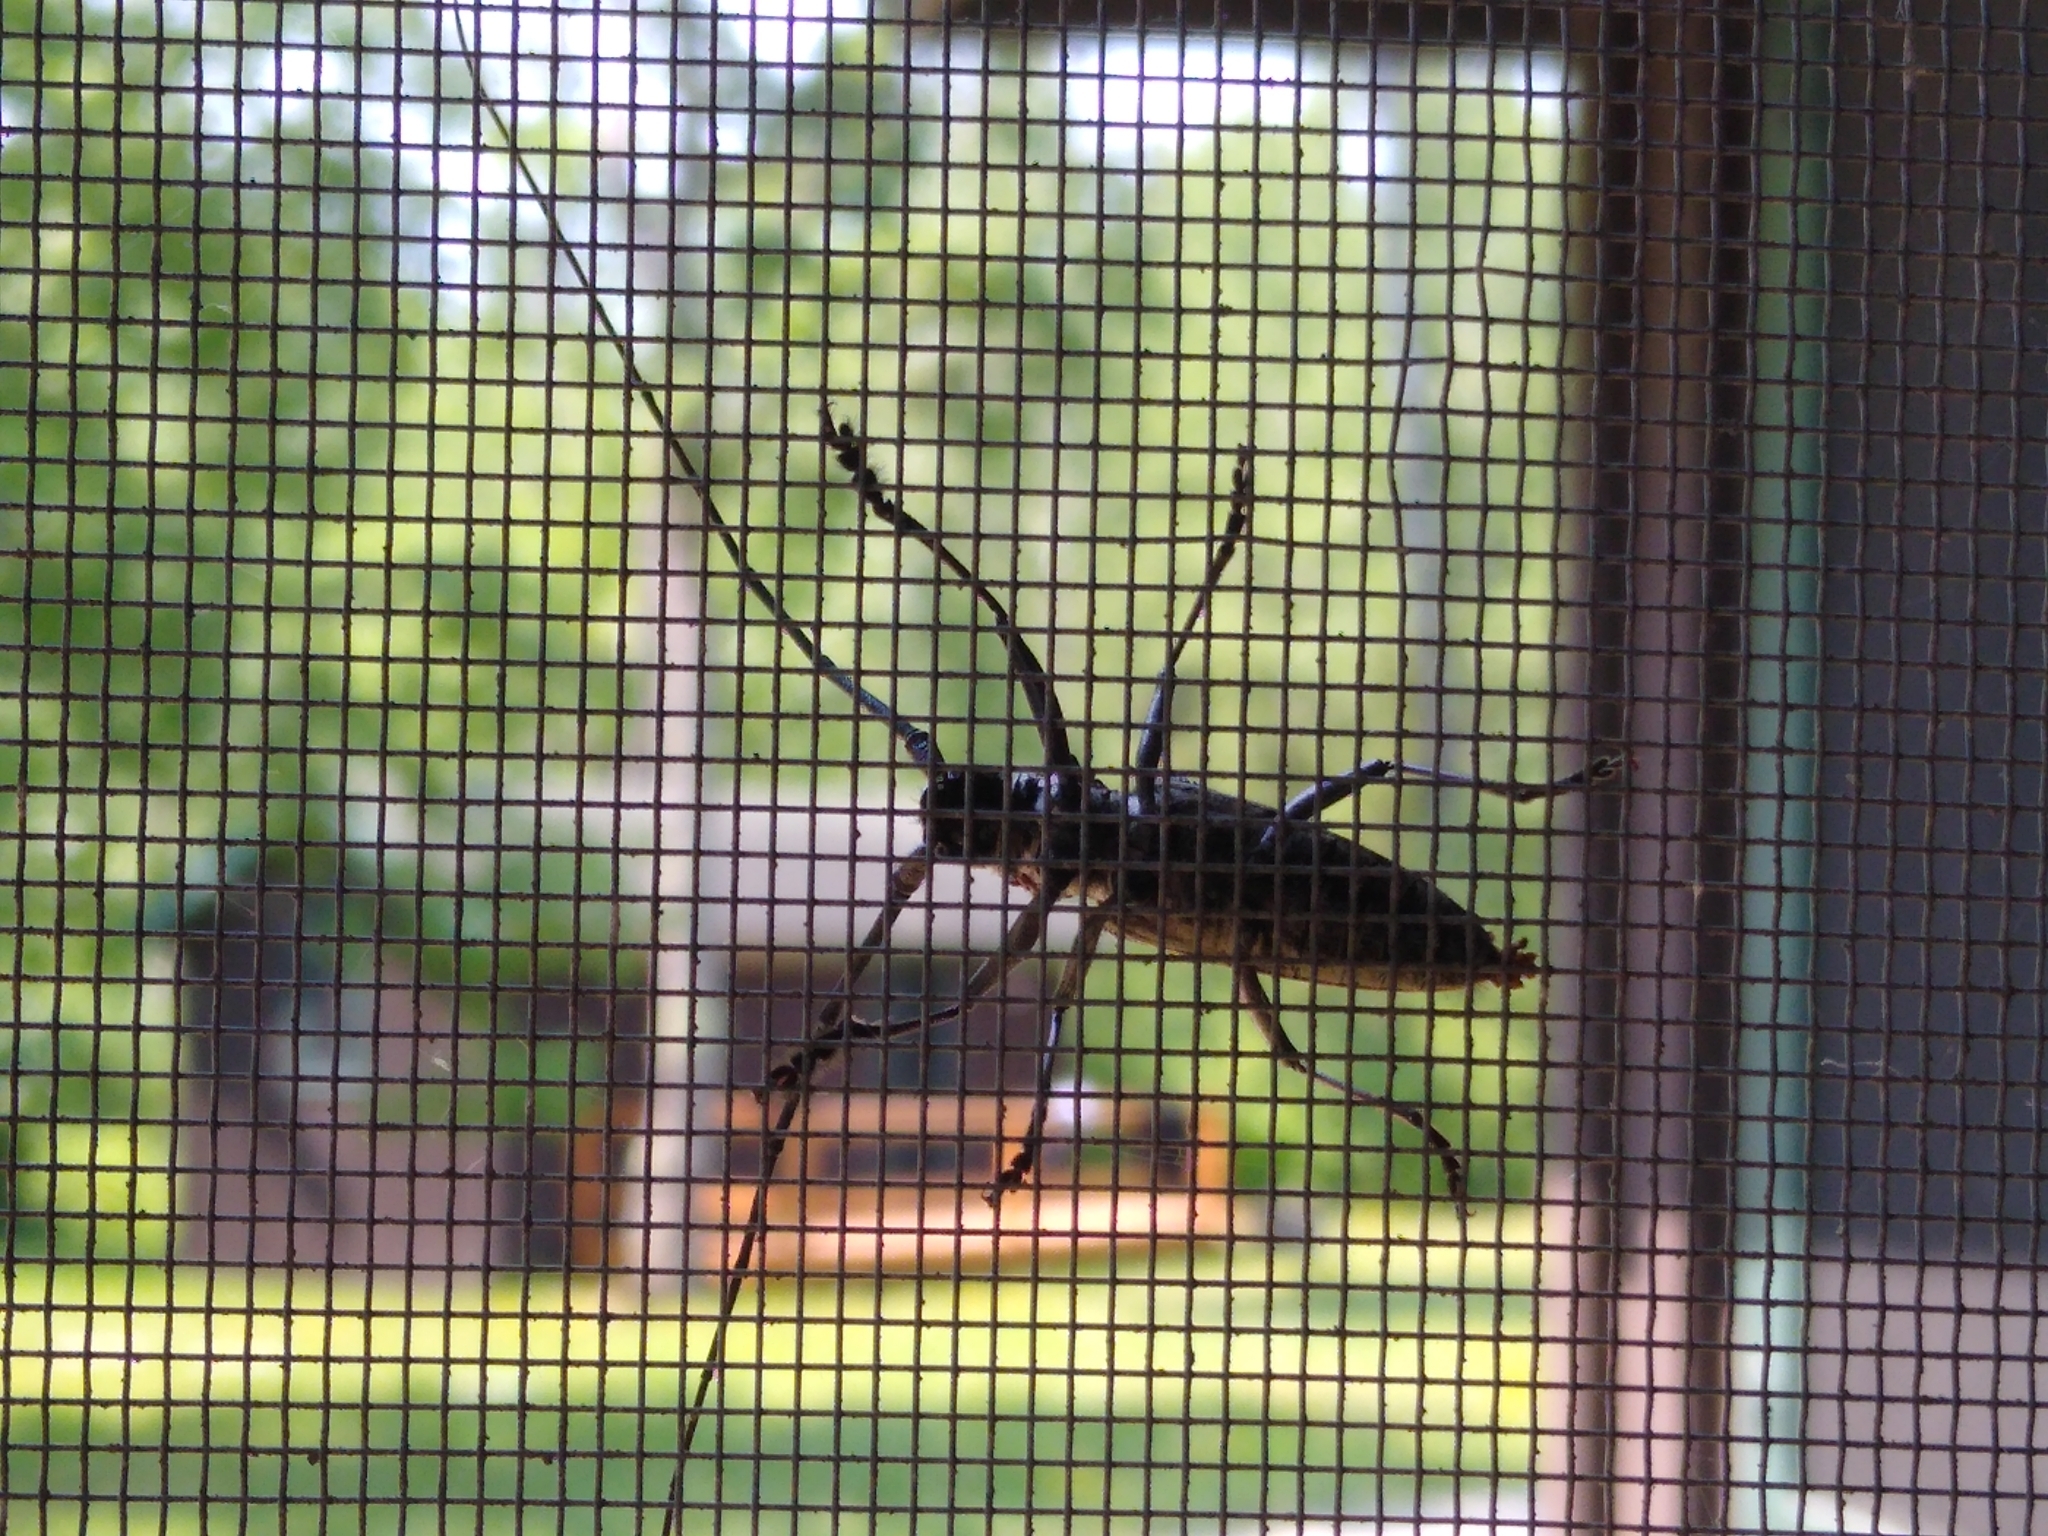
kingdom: Animalia
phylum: Arthropoda
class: Insecta
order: Coleoptera
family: Cerambycidae
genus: Monochamus
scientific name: Monochamus scutellatus
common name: White-spotted sawyer beetle
